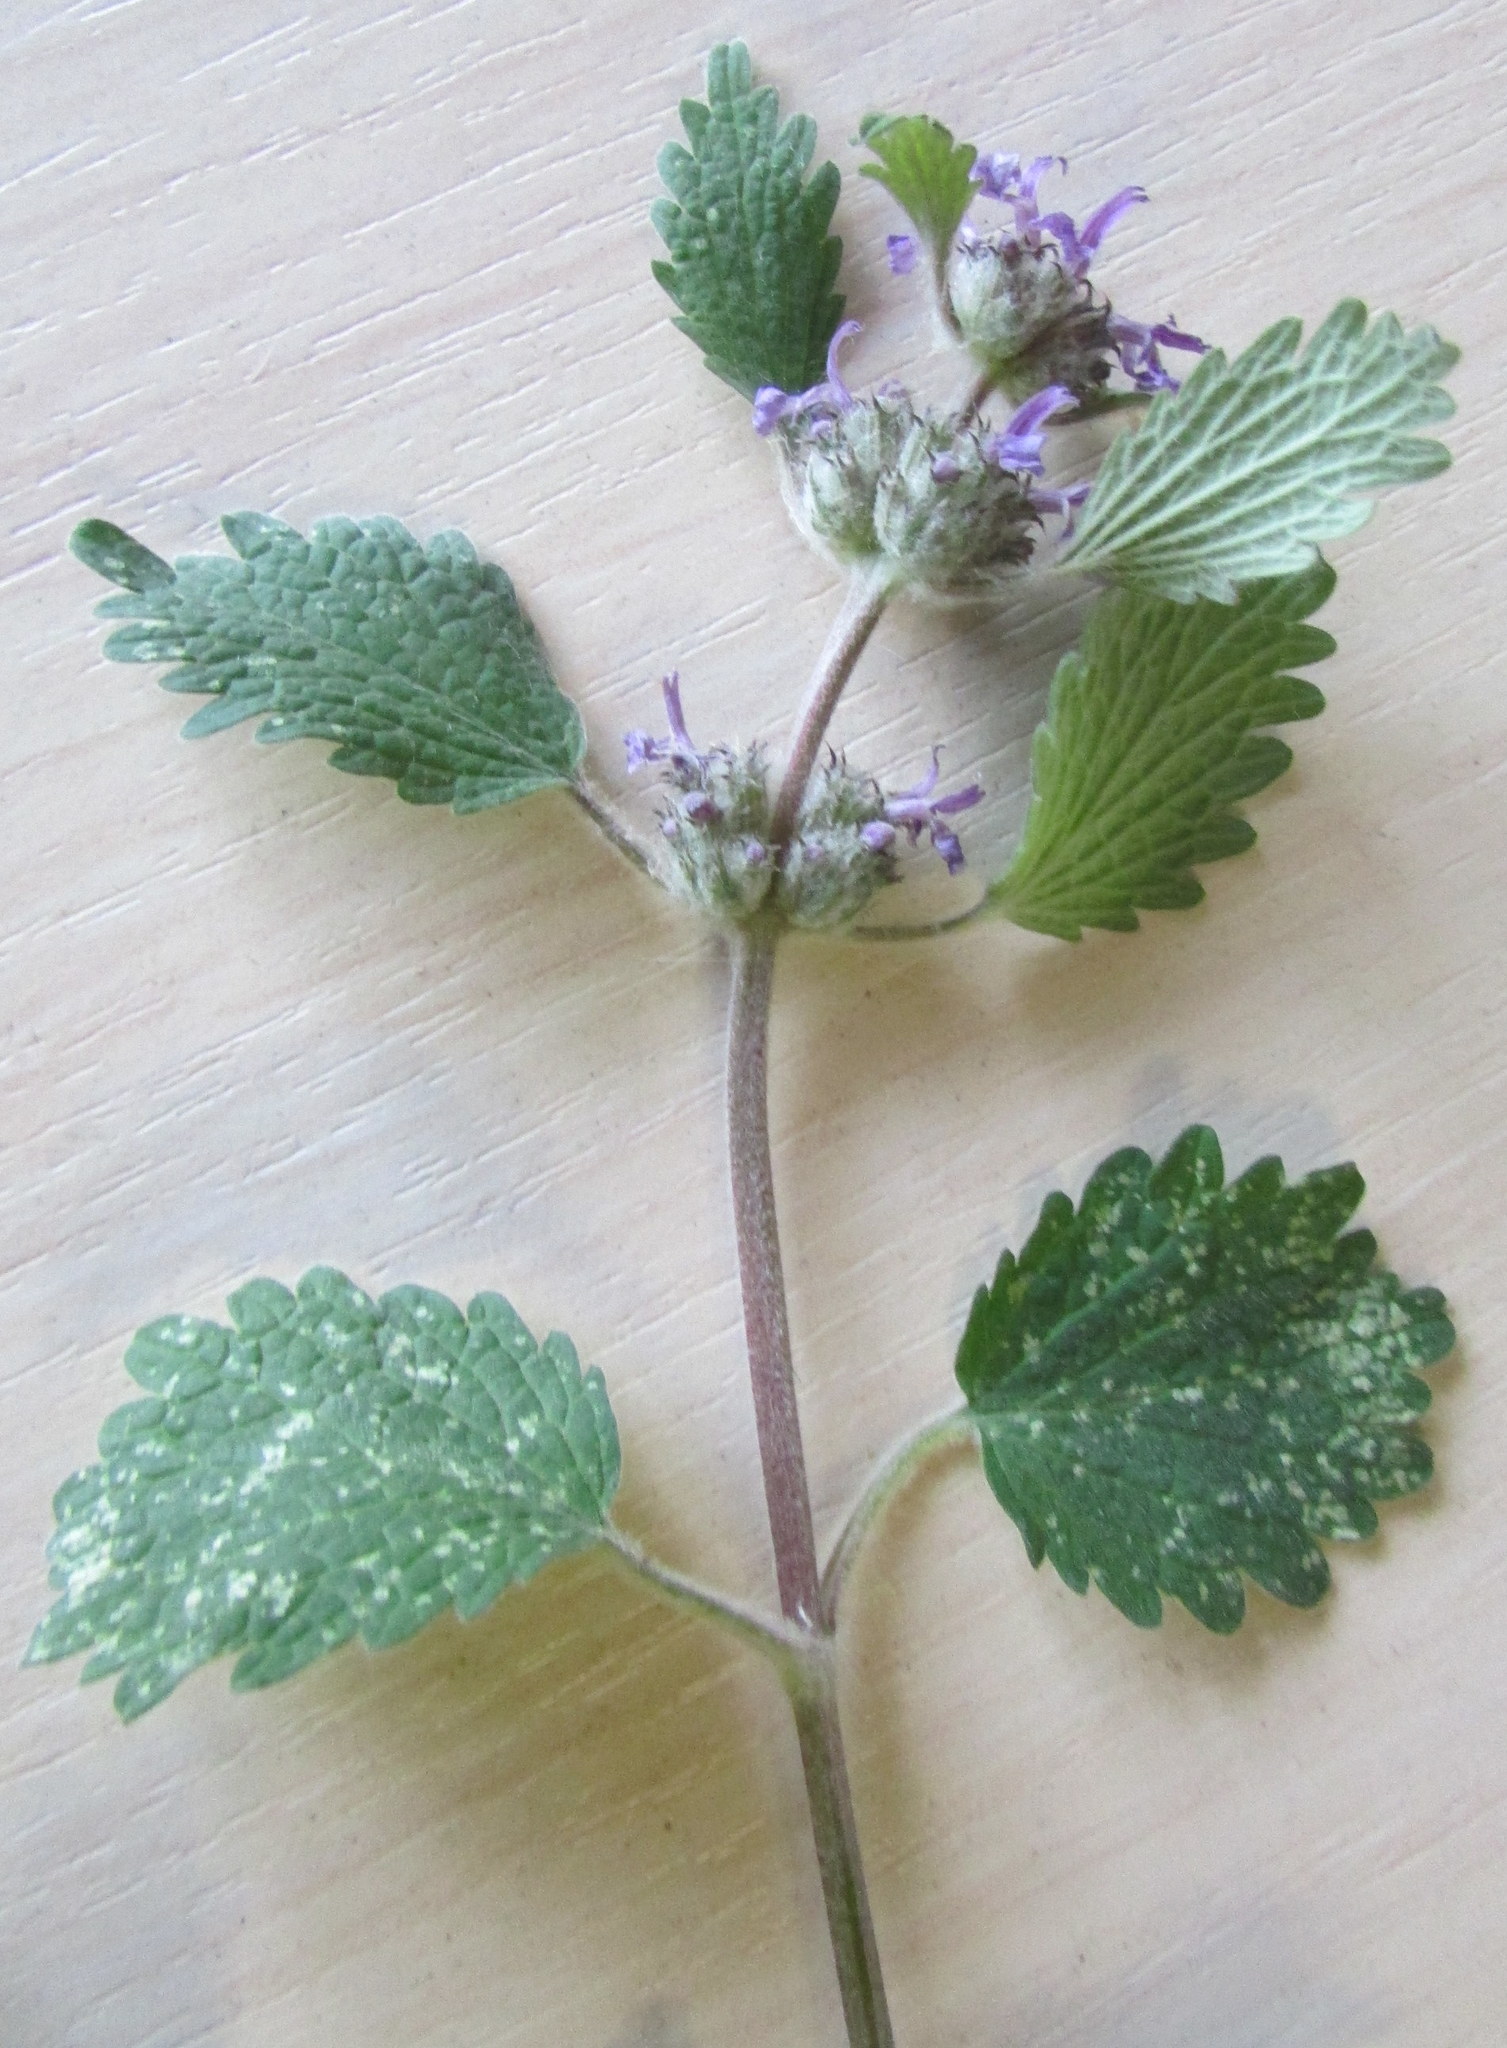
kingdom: Plantae
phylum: Tracheophyta
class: Magnoliopsida
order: Lamiales
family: Lamiaceae
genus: Marrubium
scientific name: Marrubium leonuroides
